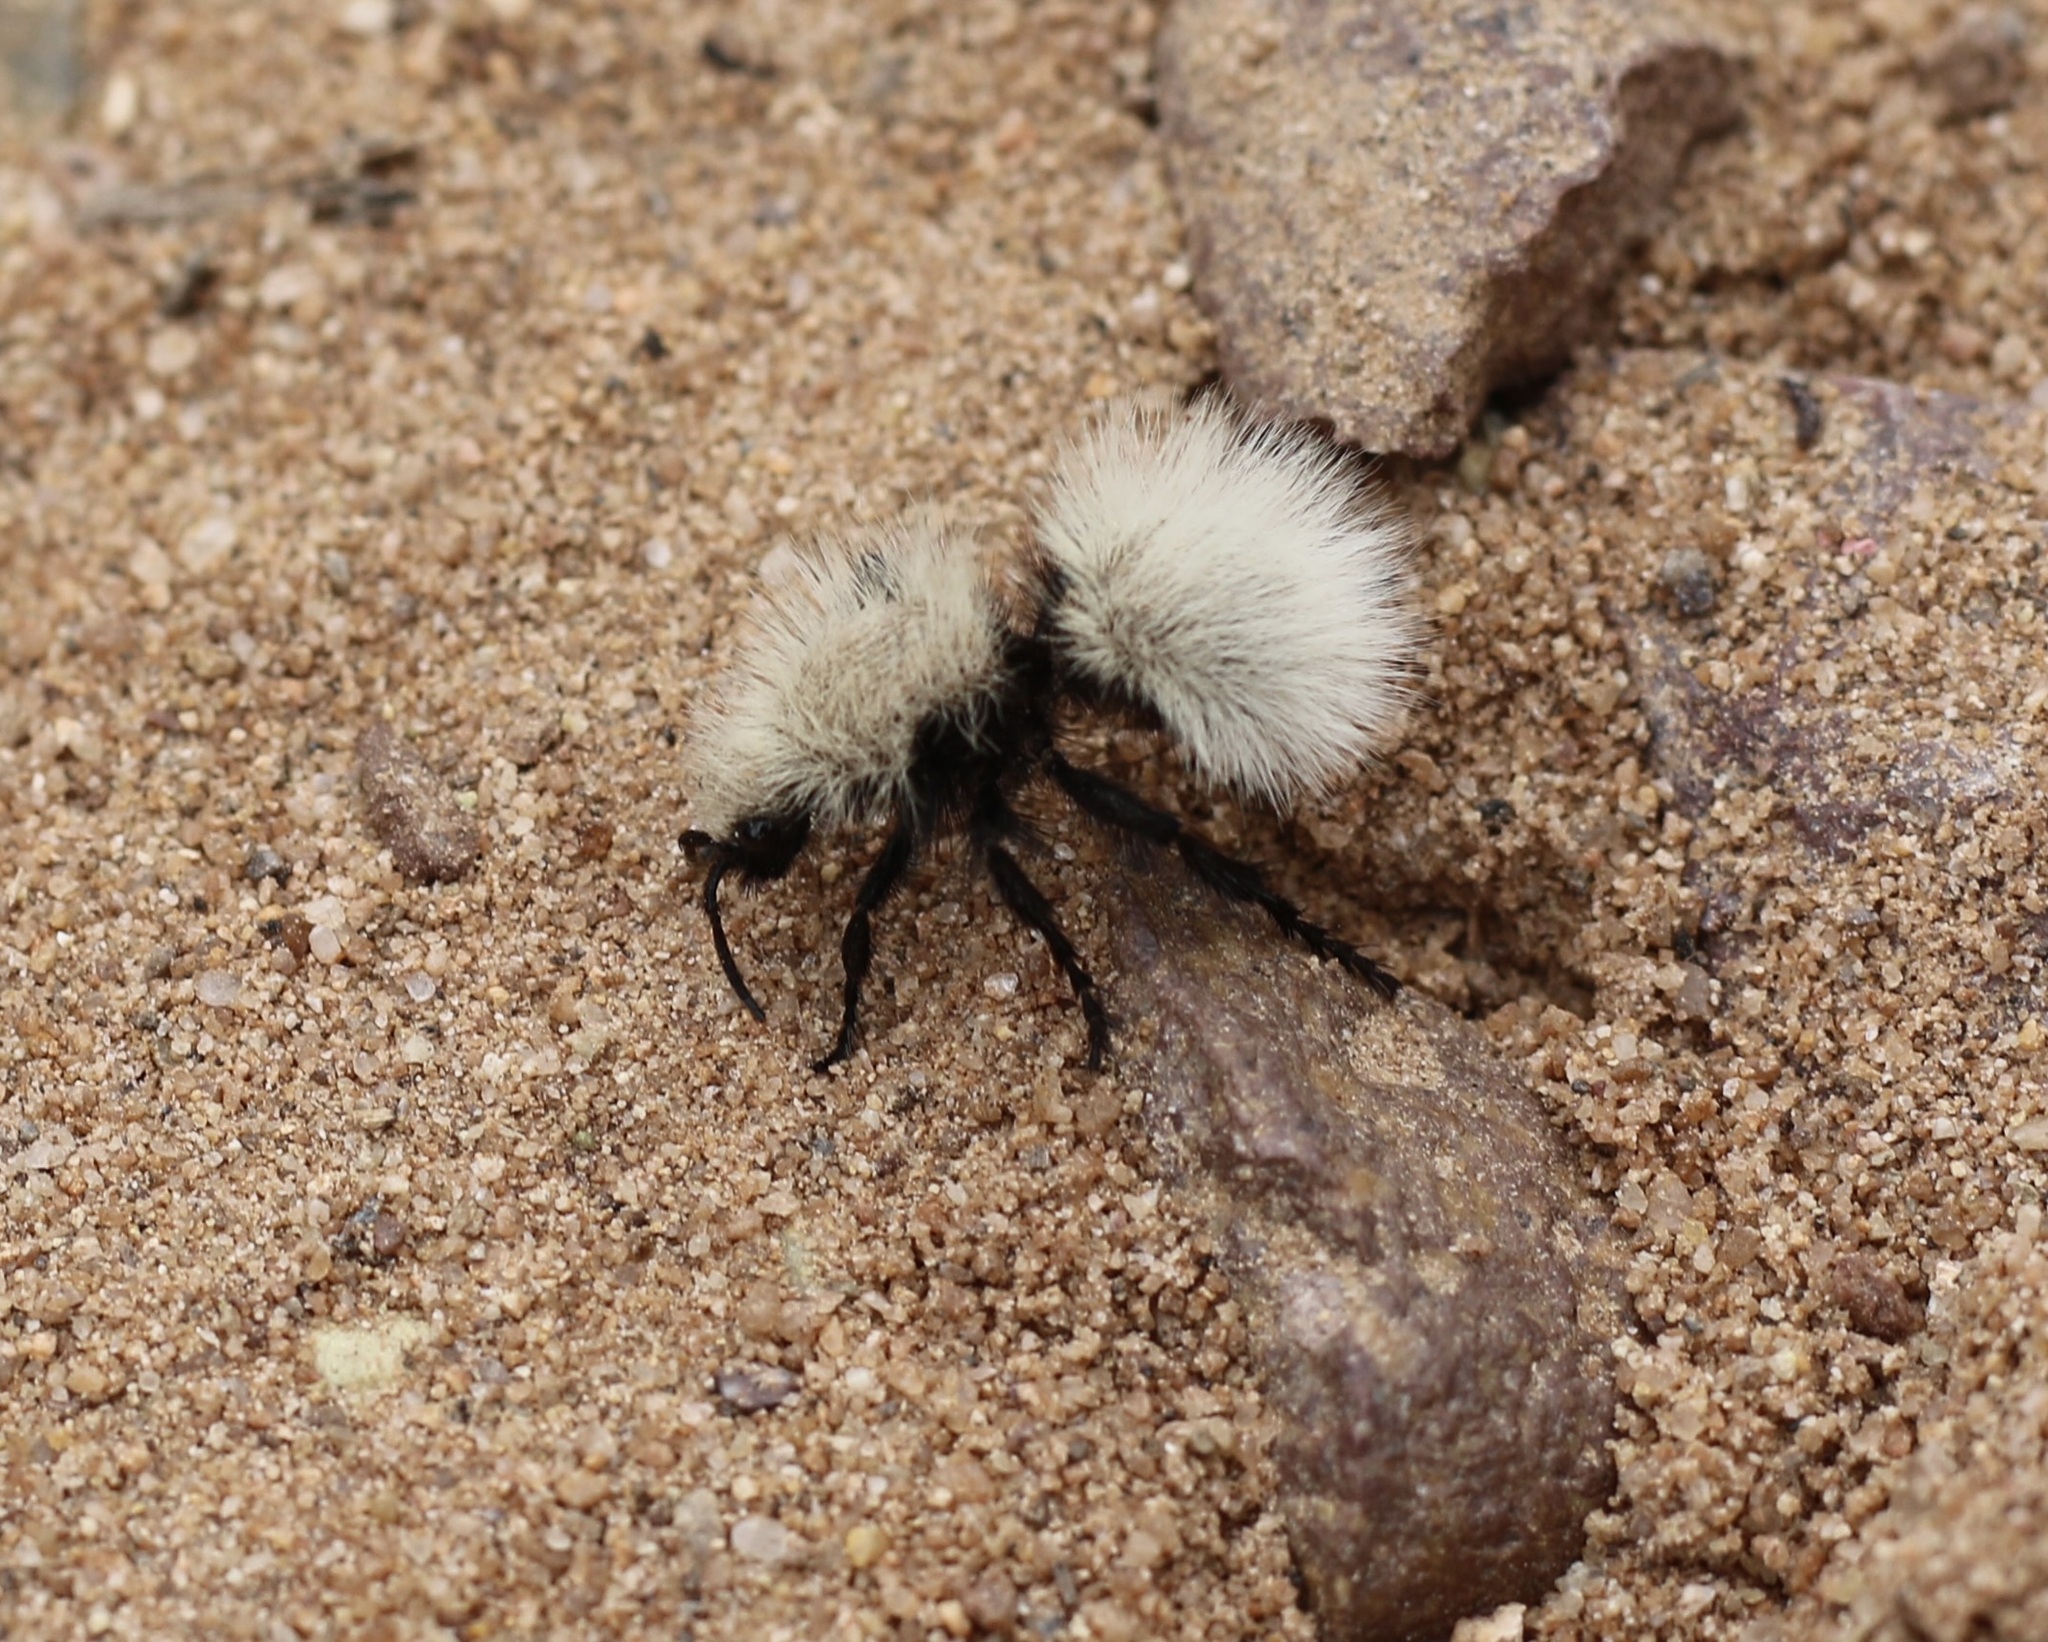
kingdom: Animalia
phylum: Arthropoda
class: Insecta
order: Hymenoptera
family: Mutillidae
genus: Dasymutilla
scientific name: Dasymutilla
